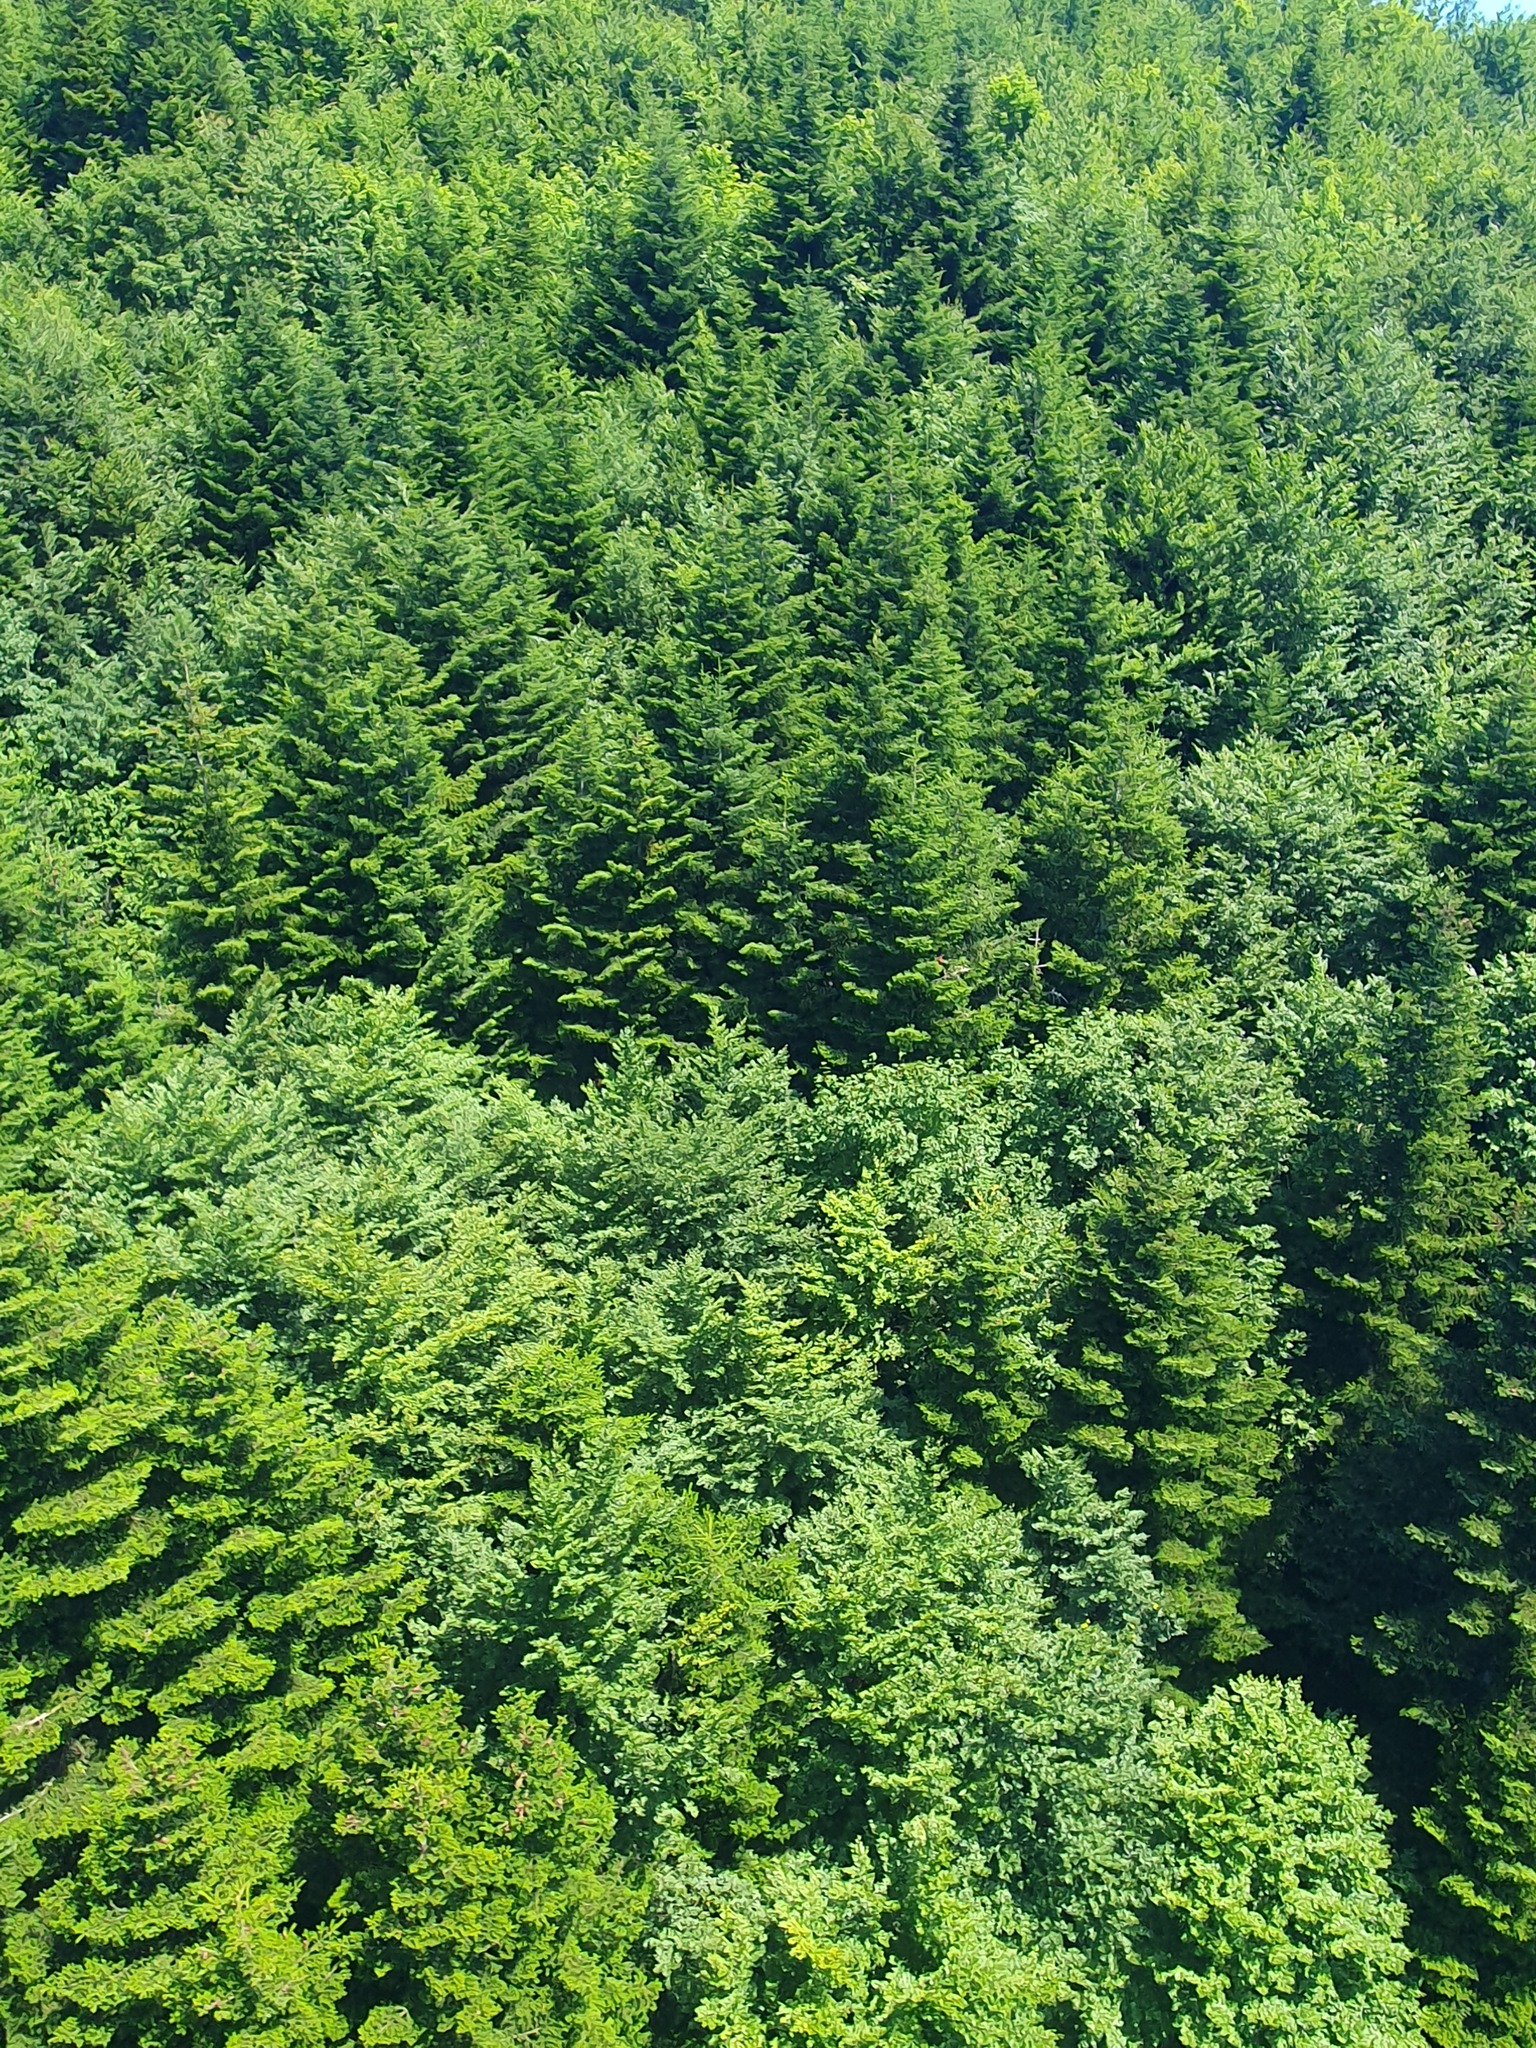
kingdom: Plantae
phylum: Tracheophyta
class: Pinopsida
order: Pinales
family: Pinaceae
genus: Abies
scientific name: Abies alba
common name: Silver fir
